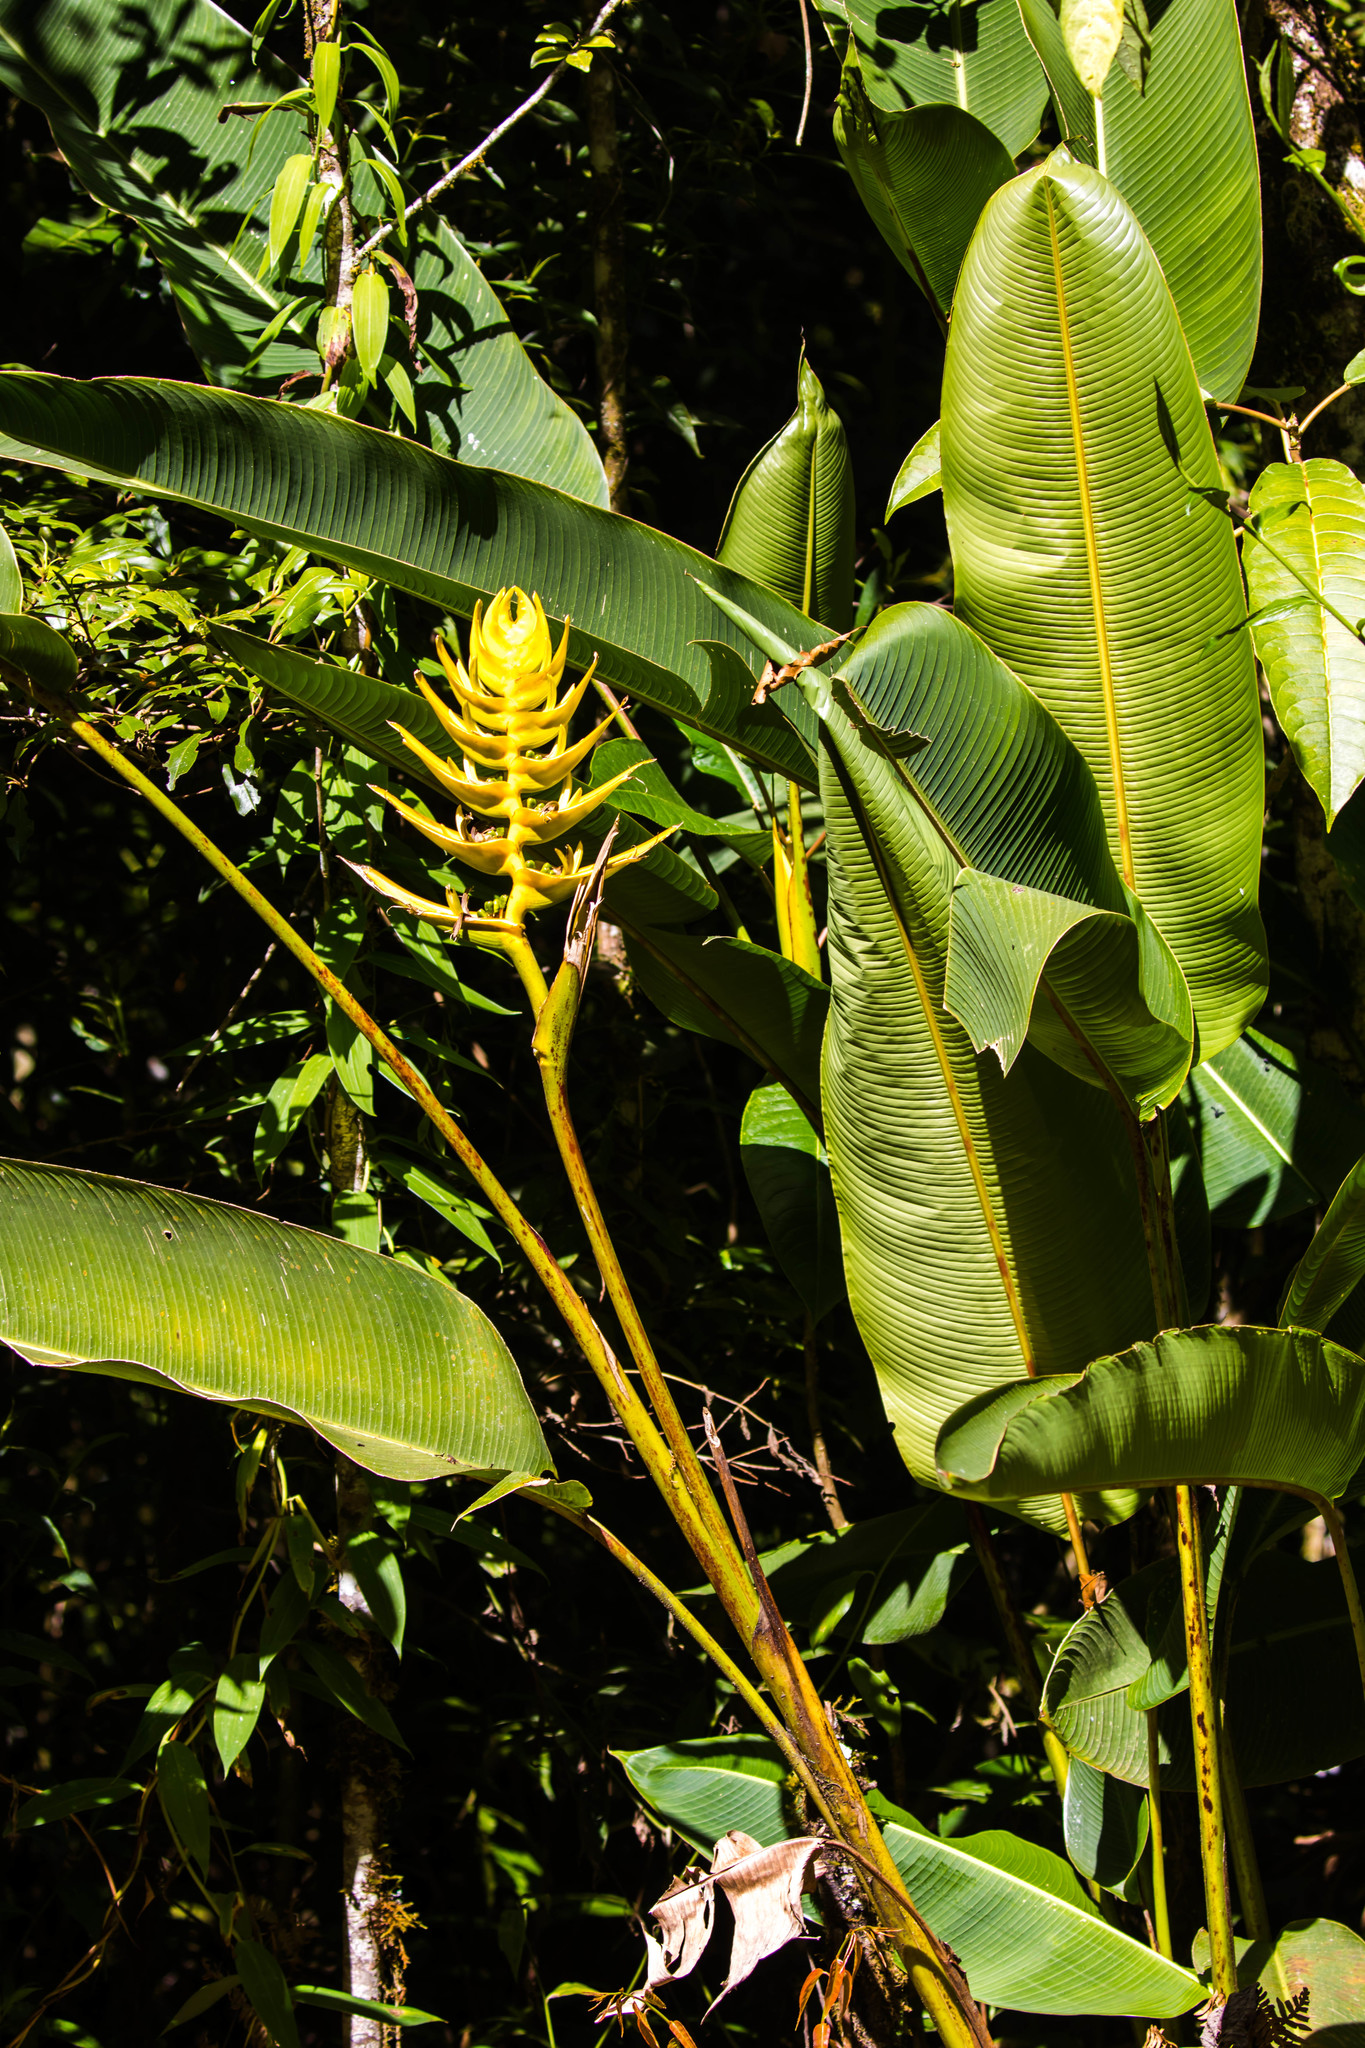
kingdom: Plantae
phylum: Tracheophyta
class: Liliopsida
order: Zingiberales
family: Heliconiaceae
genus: Heliconia
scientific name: Heliconia lankesteri
